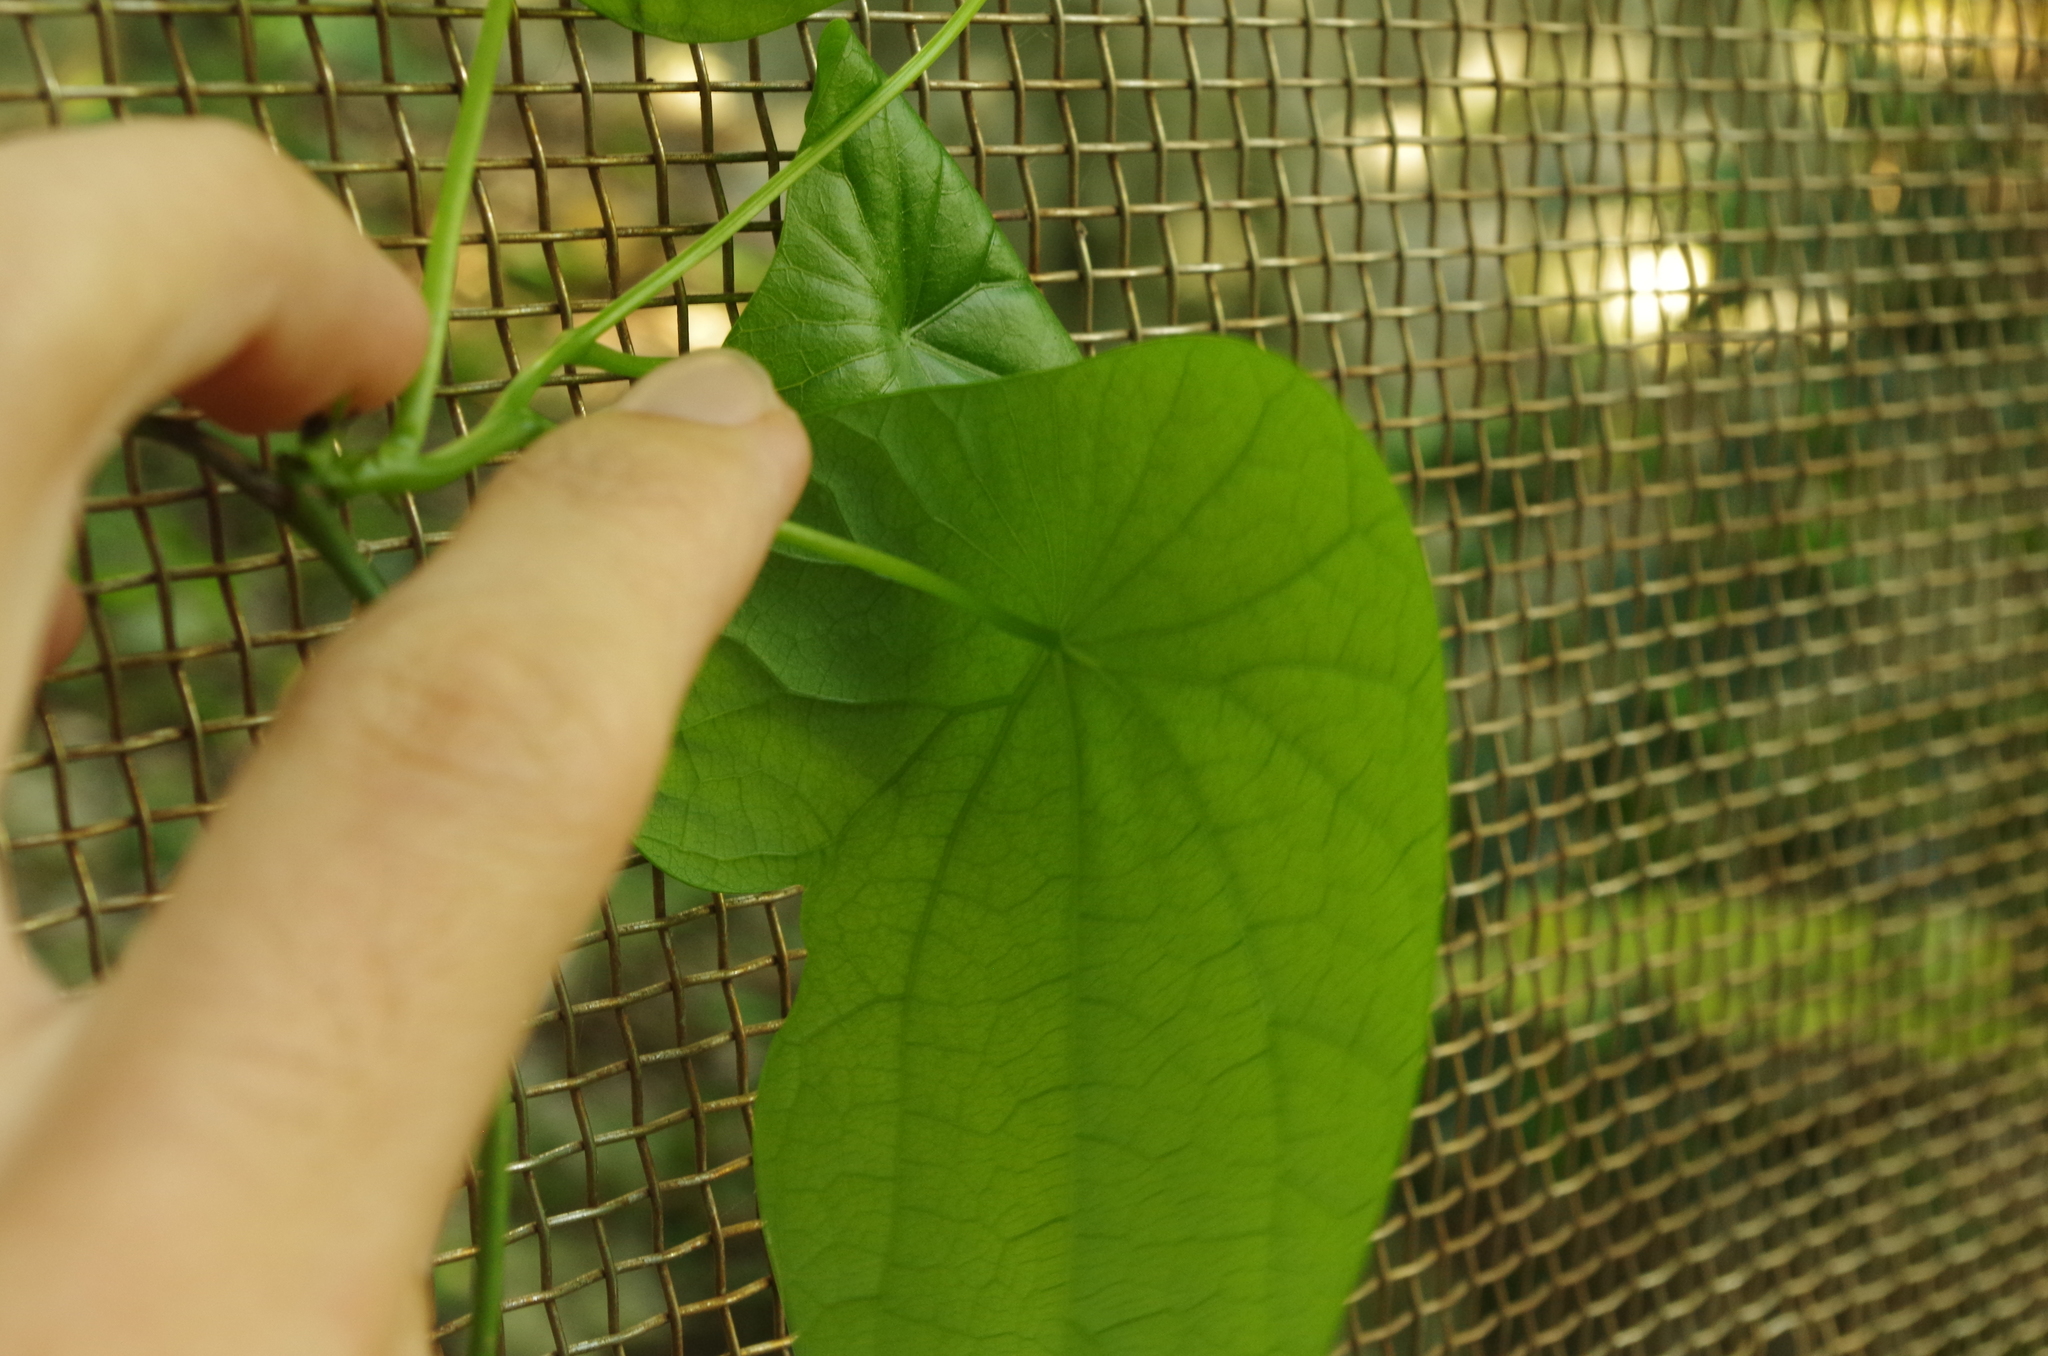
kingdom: Plantae
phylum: Tracheophyta
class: Magnoliopsida
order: Ranunculales
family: Menispermaceae
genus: Stephania
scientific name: Stephania japonica
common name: Snake vine
